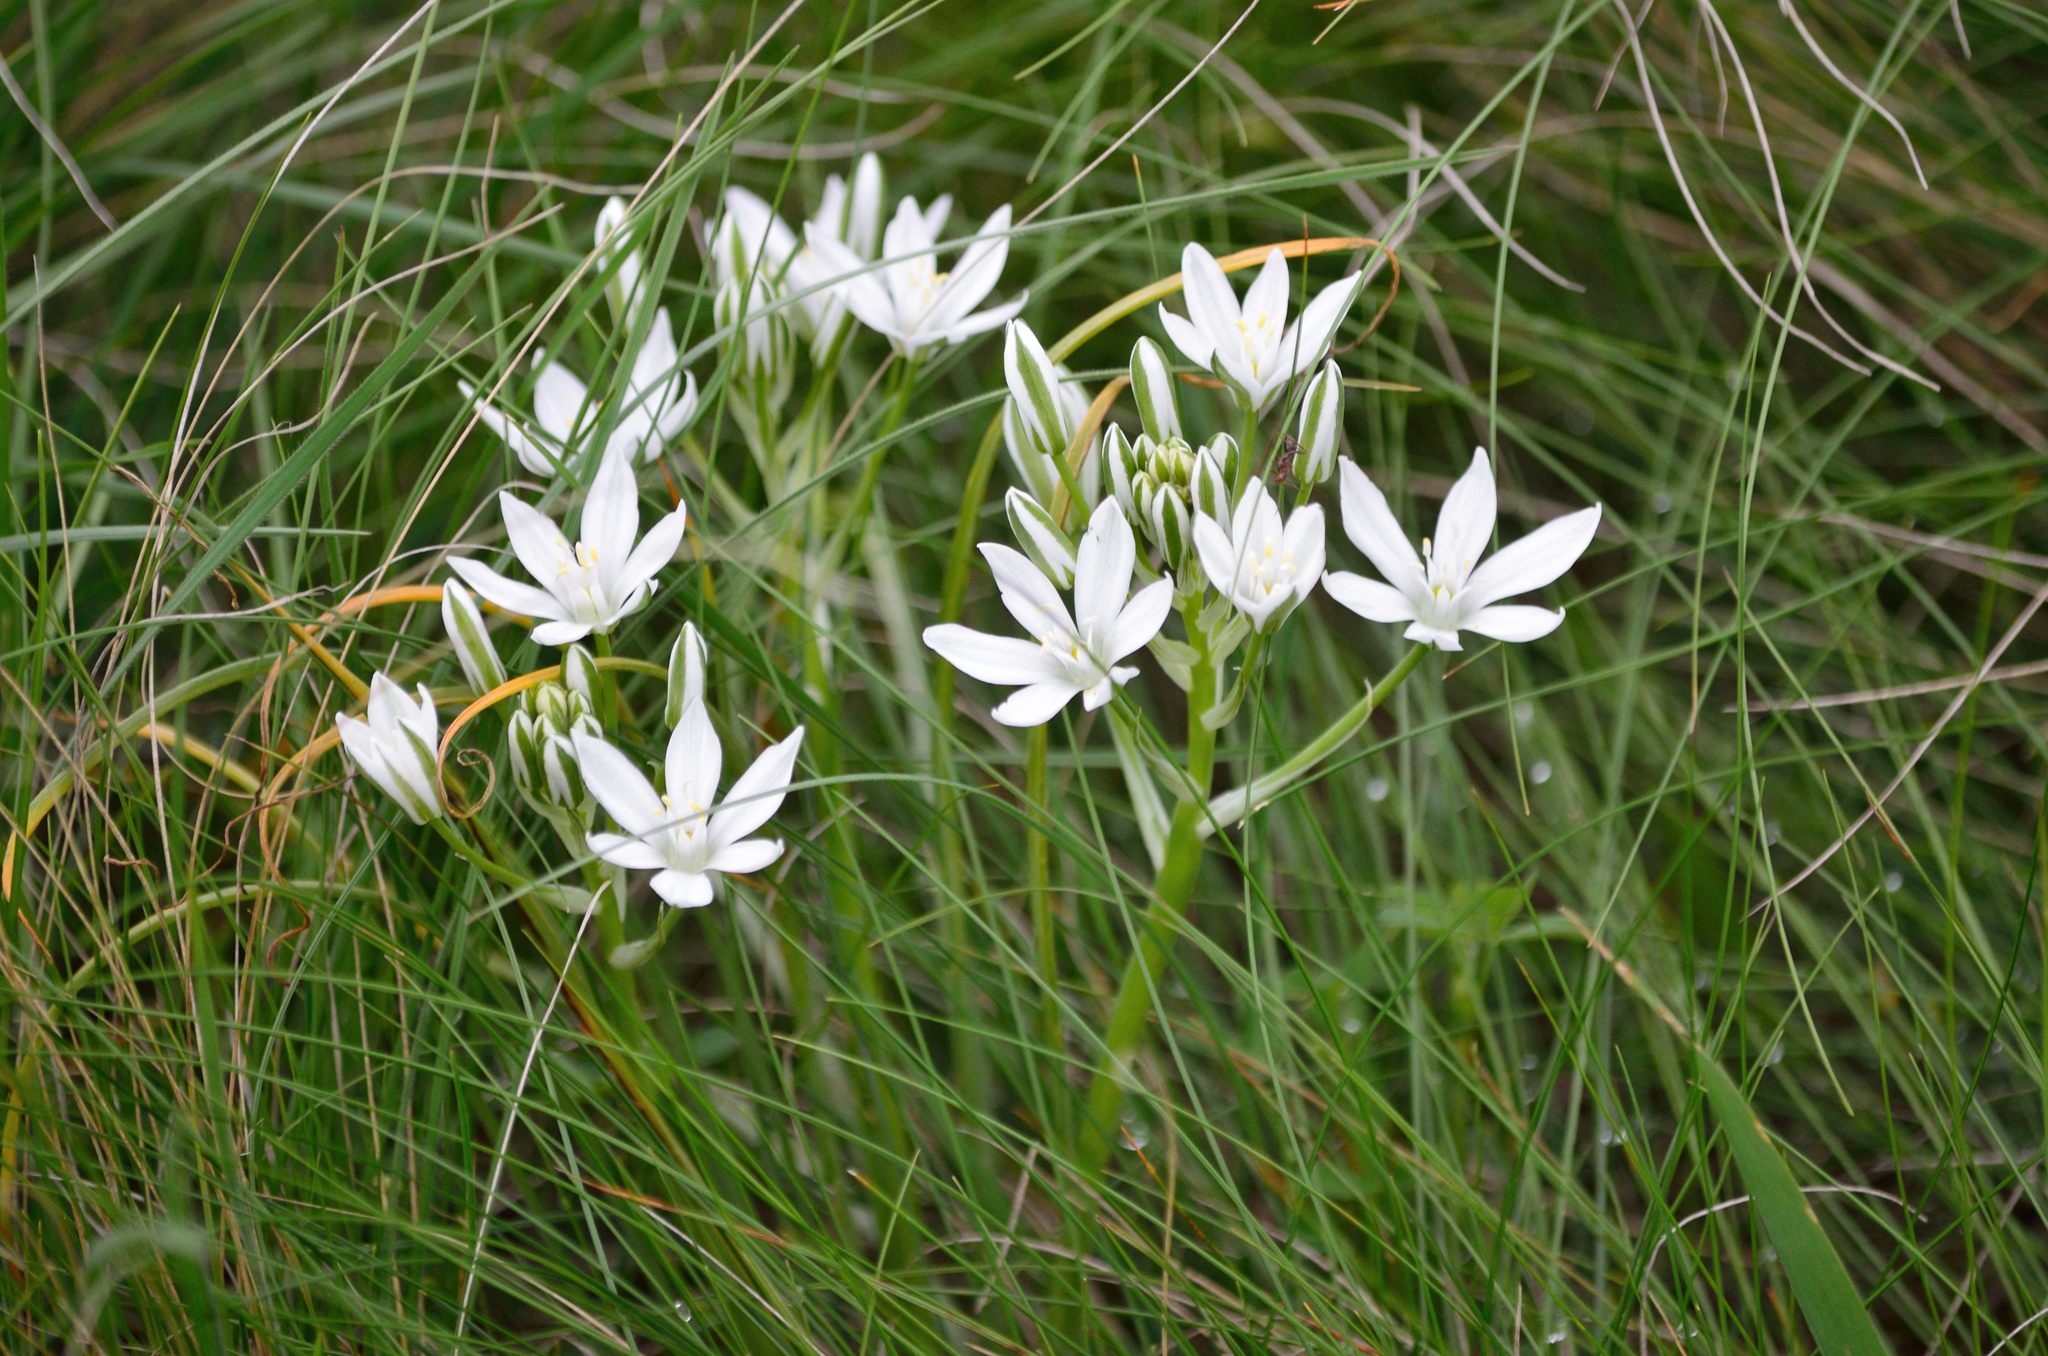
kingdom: Plantae
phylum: Tracheophyta
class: Liliopsida
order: Asparagales
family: Asparagaceae
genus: Ornithogalum
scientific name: Ornithogalum orthophyllum
